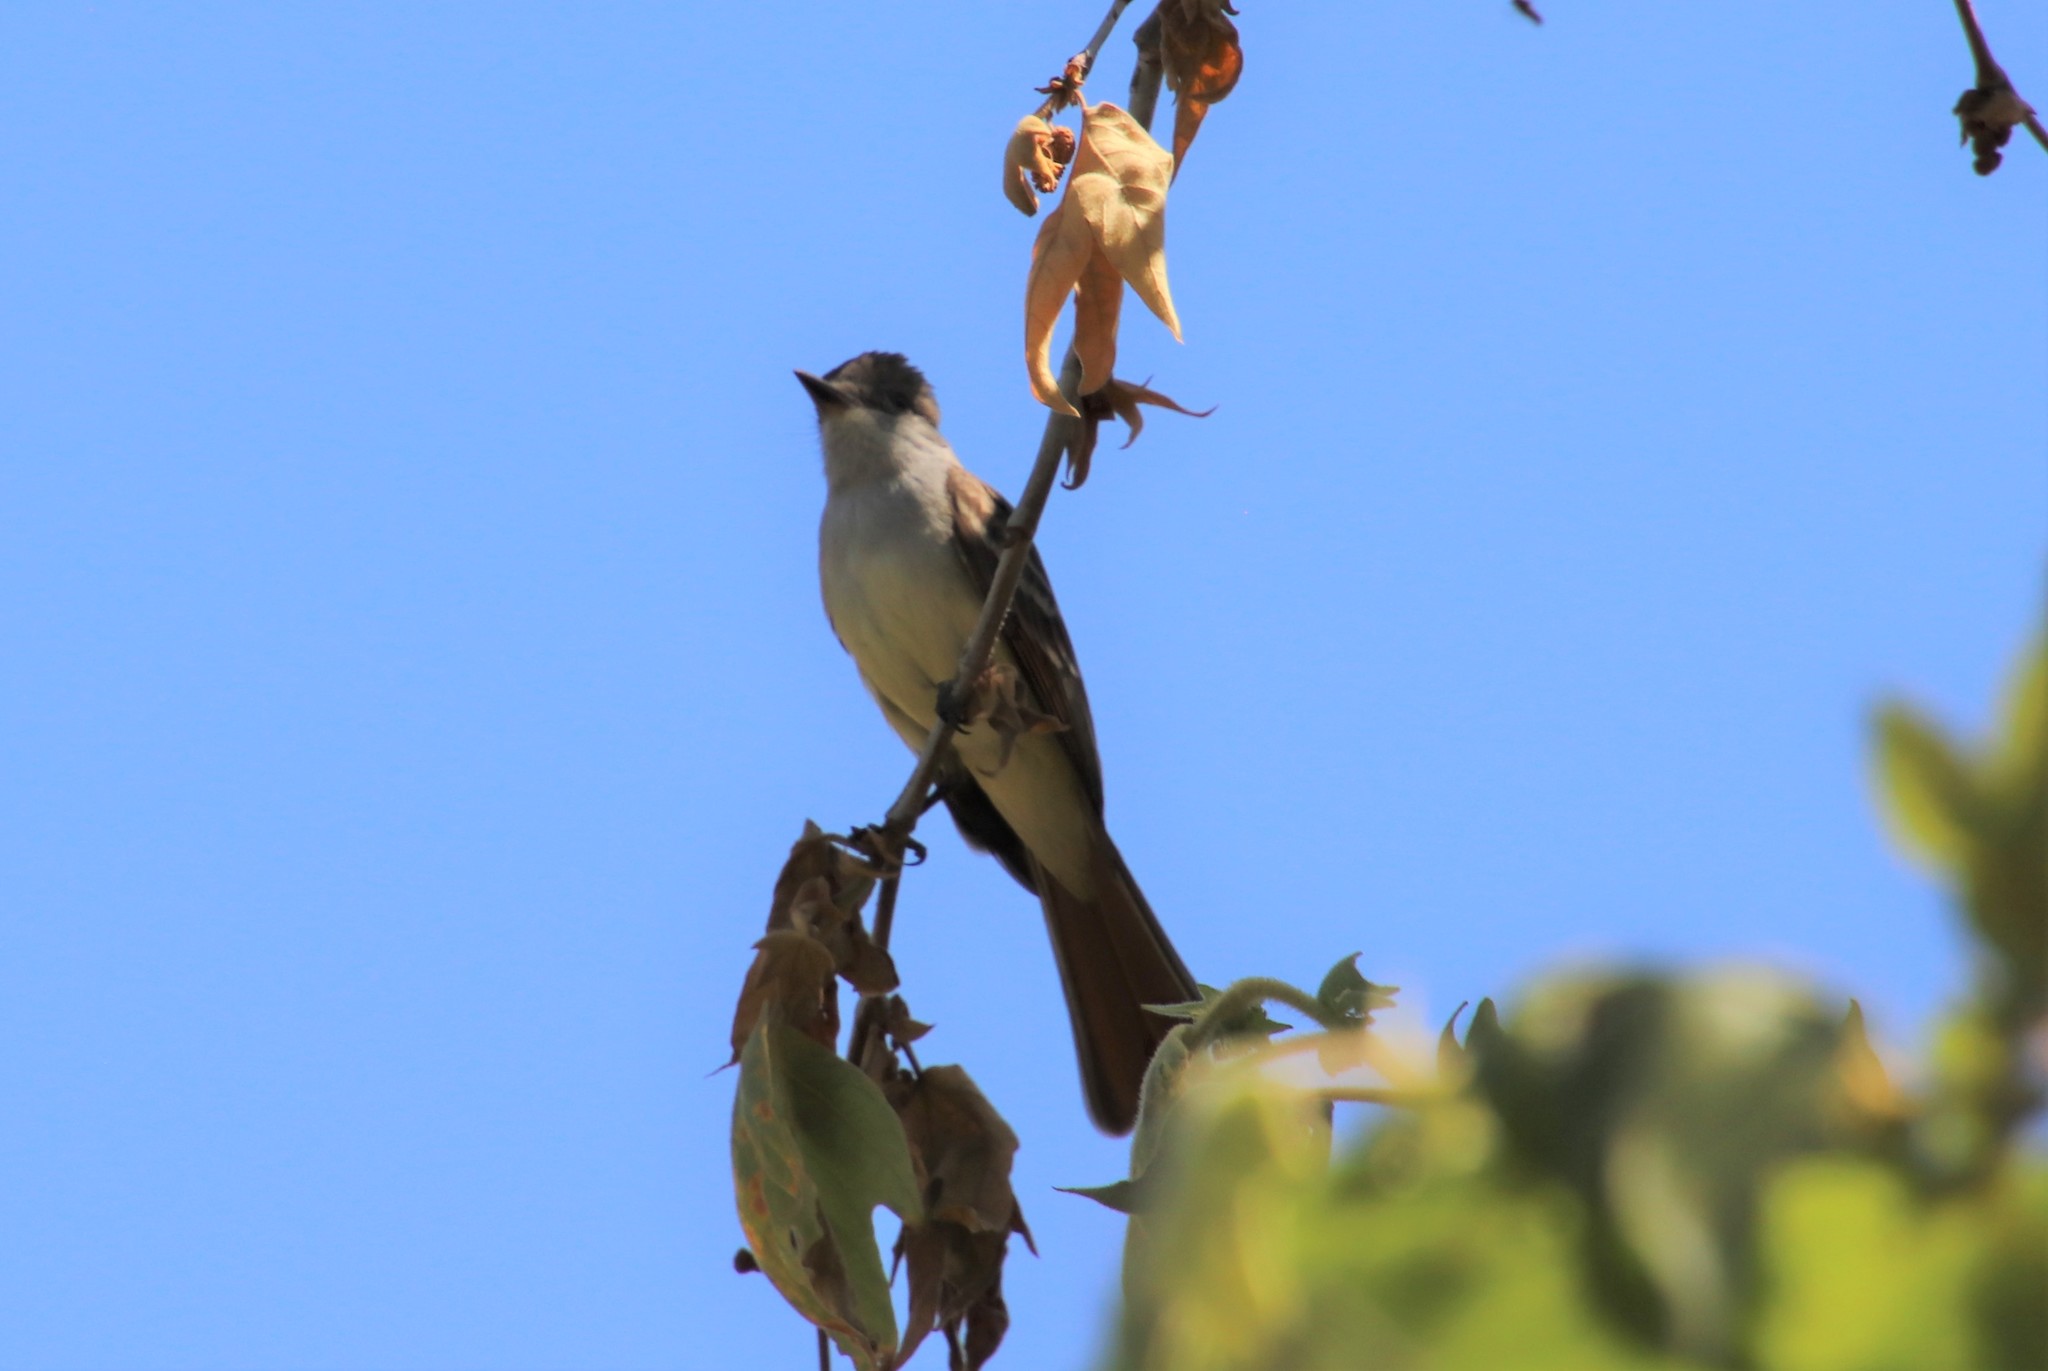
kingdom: Animalia
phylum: Chordata
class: Aves
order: Passeriformes
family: Tyrannidae
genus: Myiarchus
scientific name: Myiarchus cinerascens
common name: Ash-throated flycatcher
